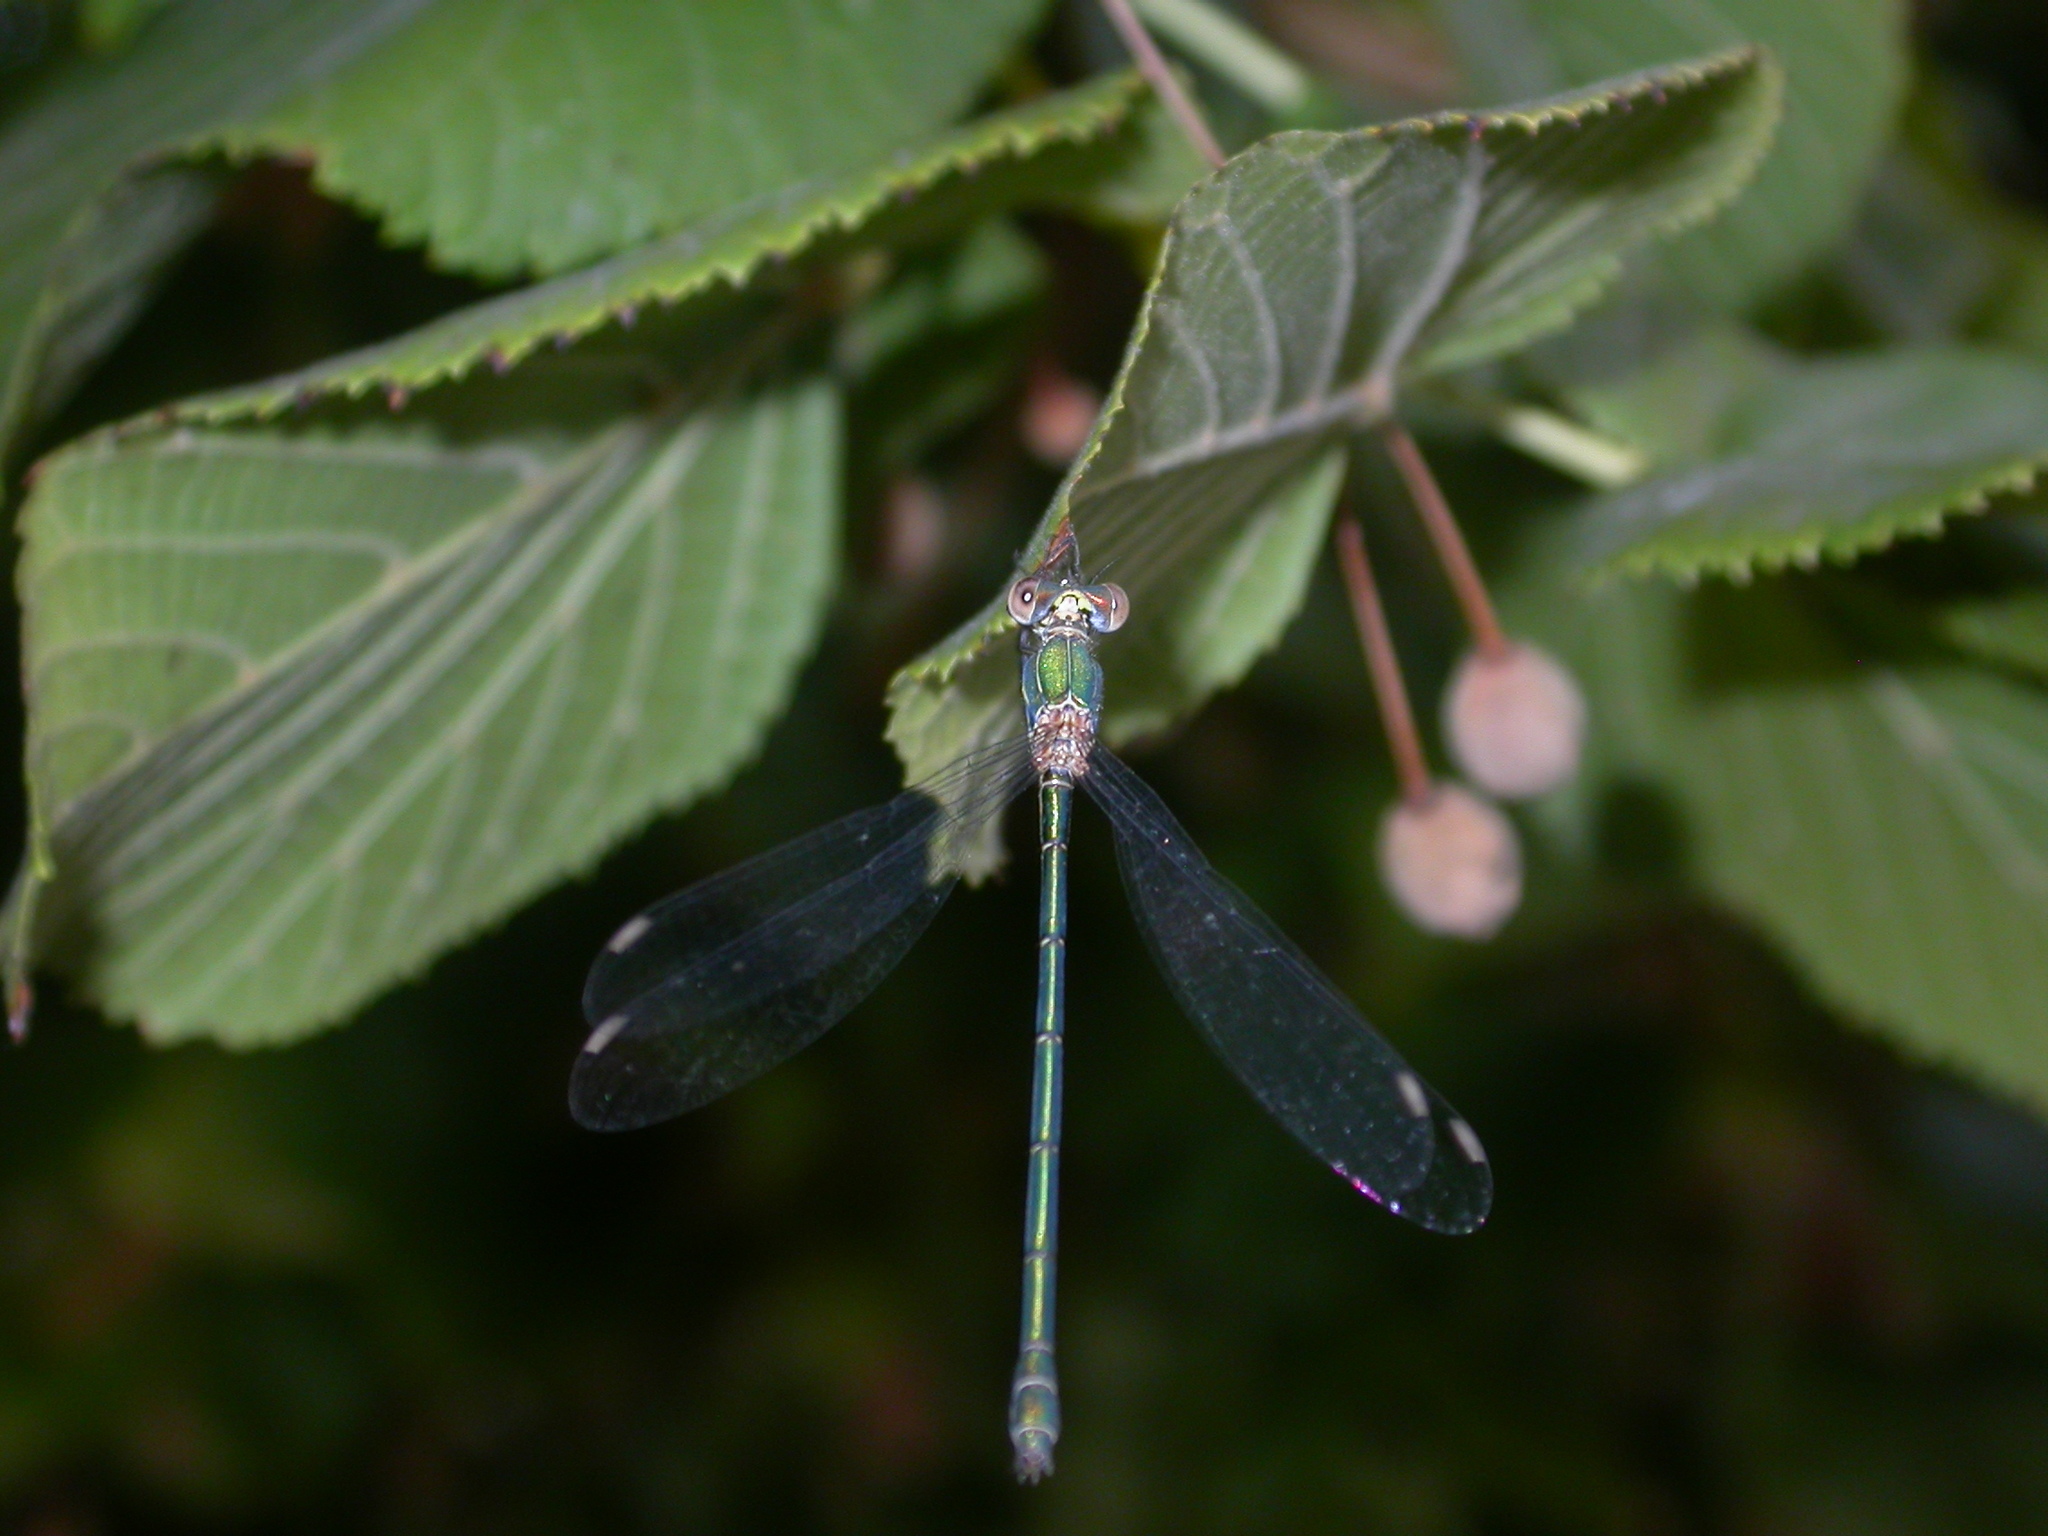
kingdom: Animalia
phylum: Arthropoda
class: Insecta
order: Odonata
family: Lestidae
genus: Chalcolestes
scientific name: Chalcolestes viridis
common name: Green emerald damselfly
